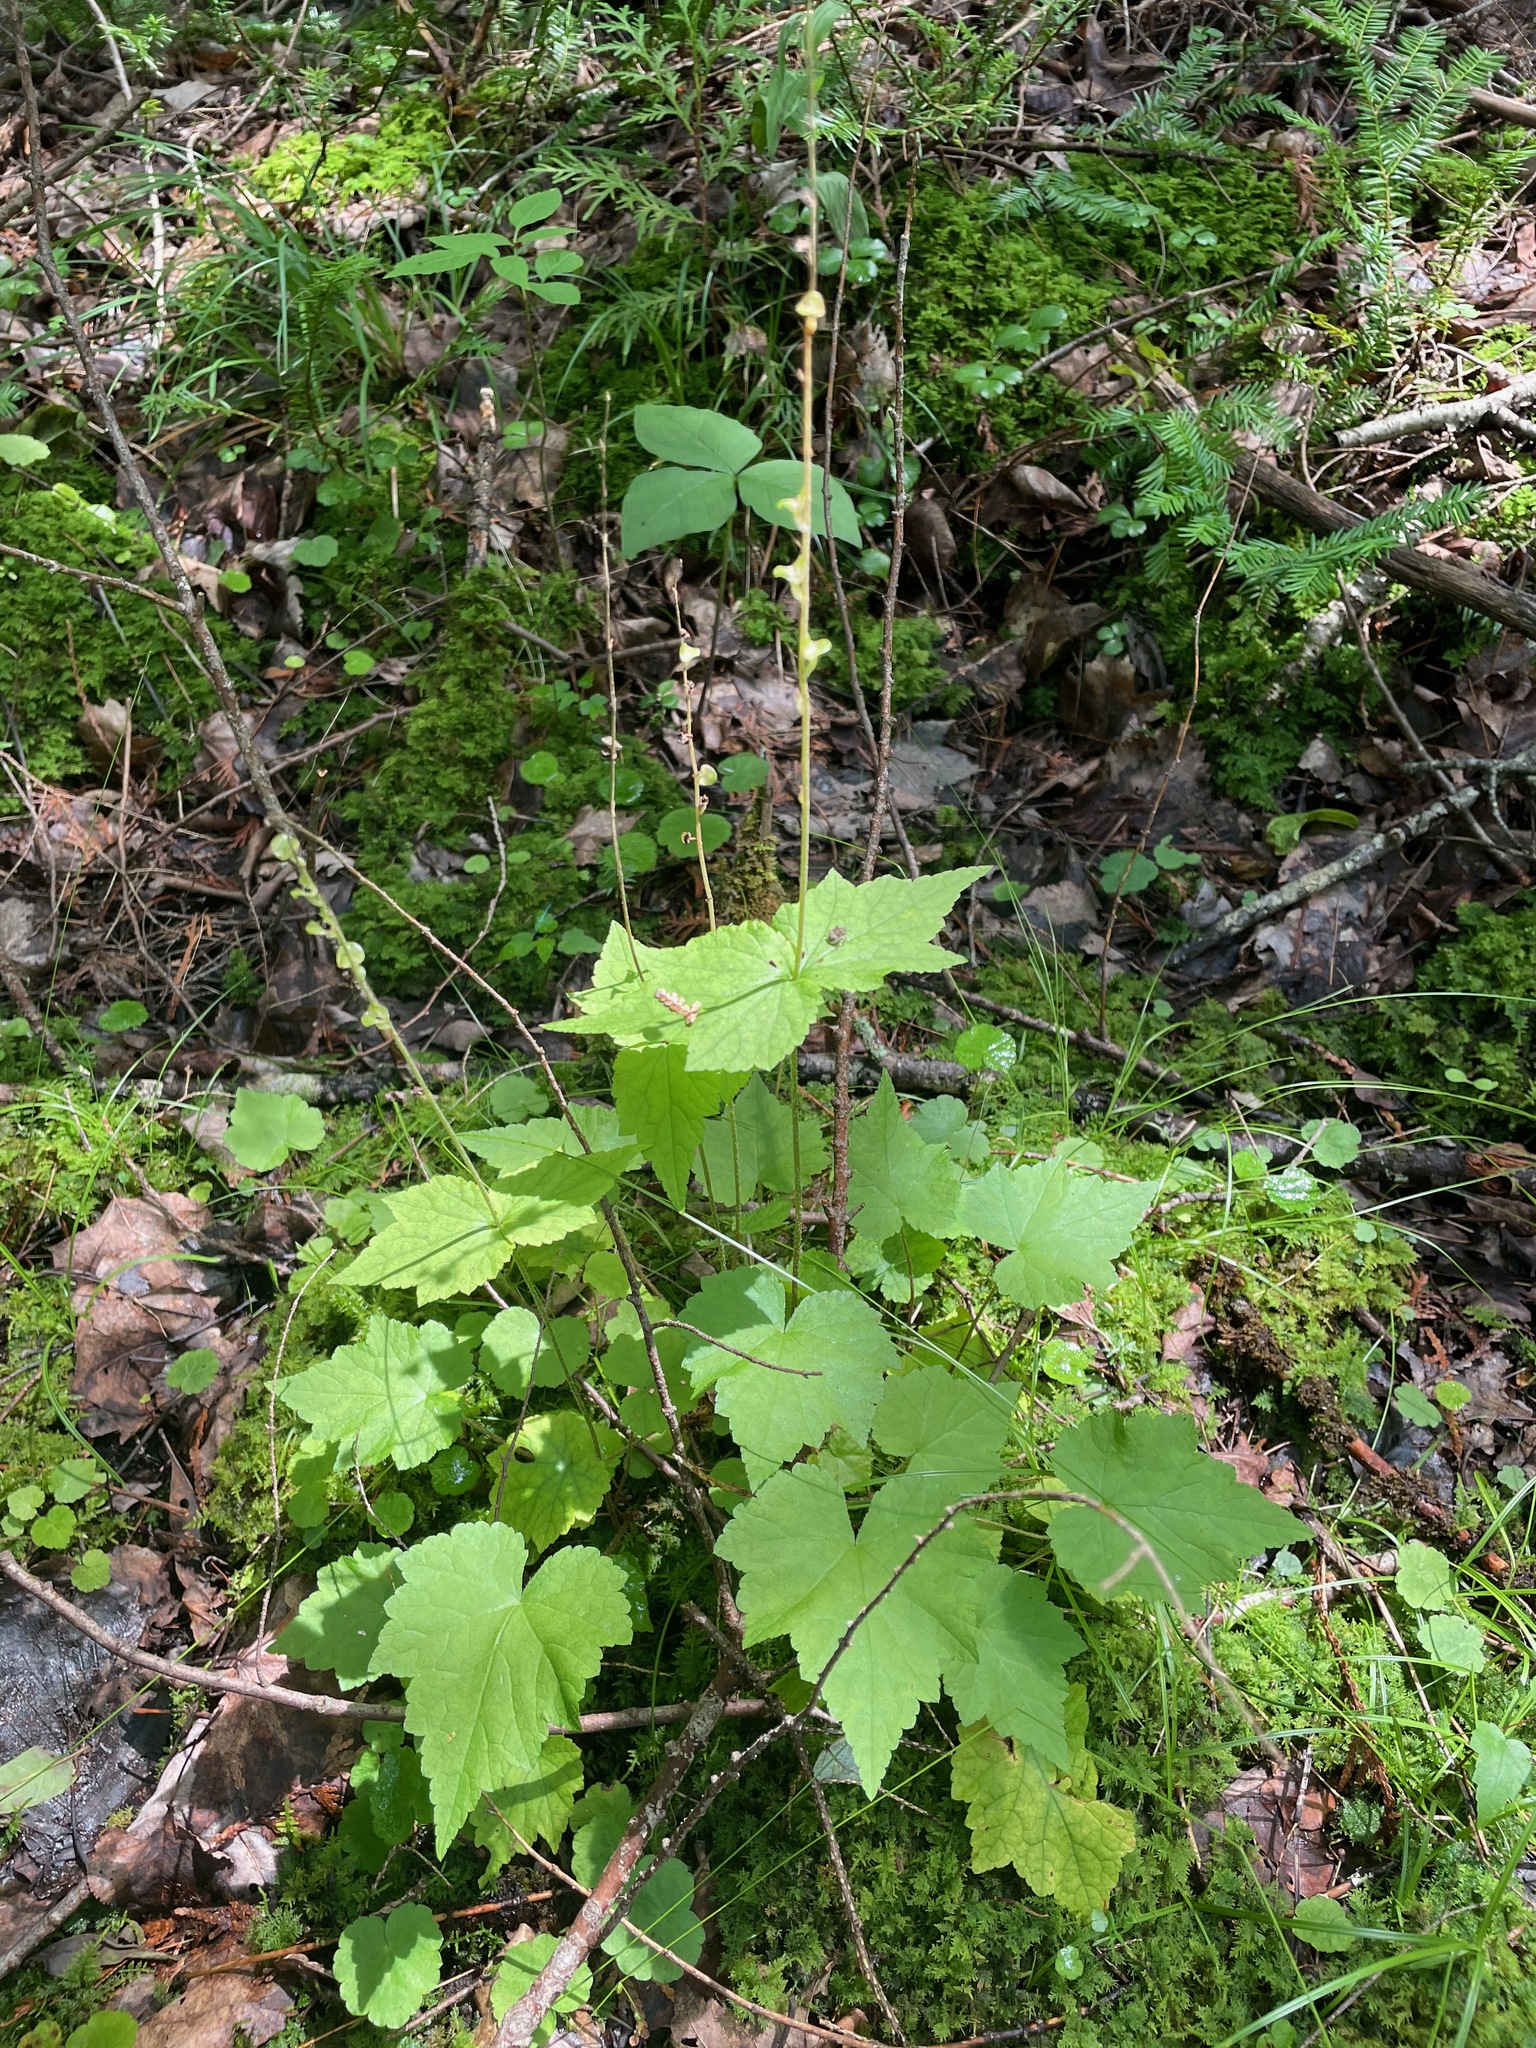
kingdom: Plantae
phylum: Tracheophyta
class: Magnoliopsida
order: Saxifragales
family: Saxifragaceae
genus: Mitella
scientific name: Mitella diphylla
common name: Coolwort
